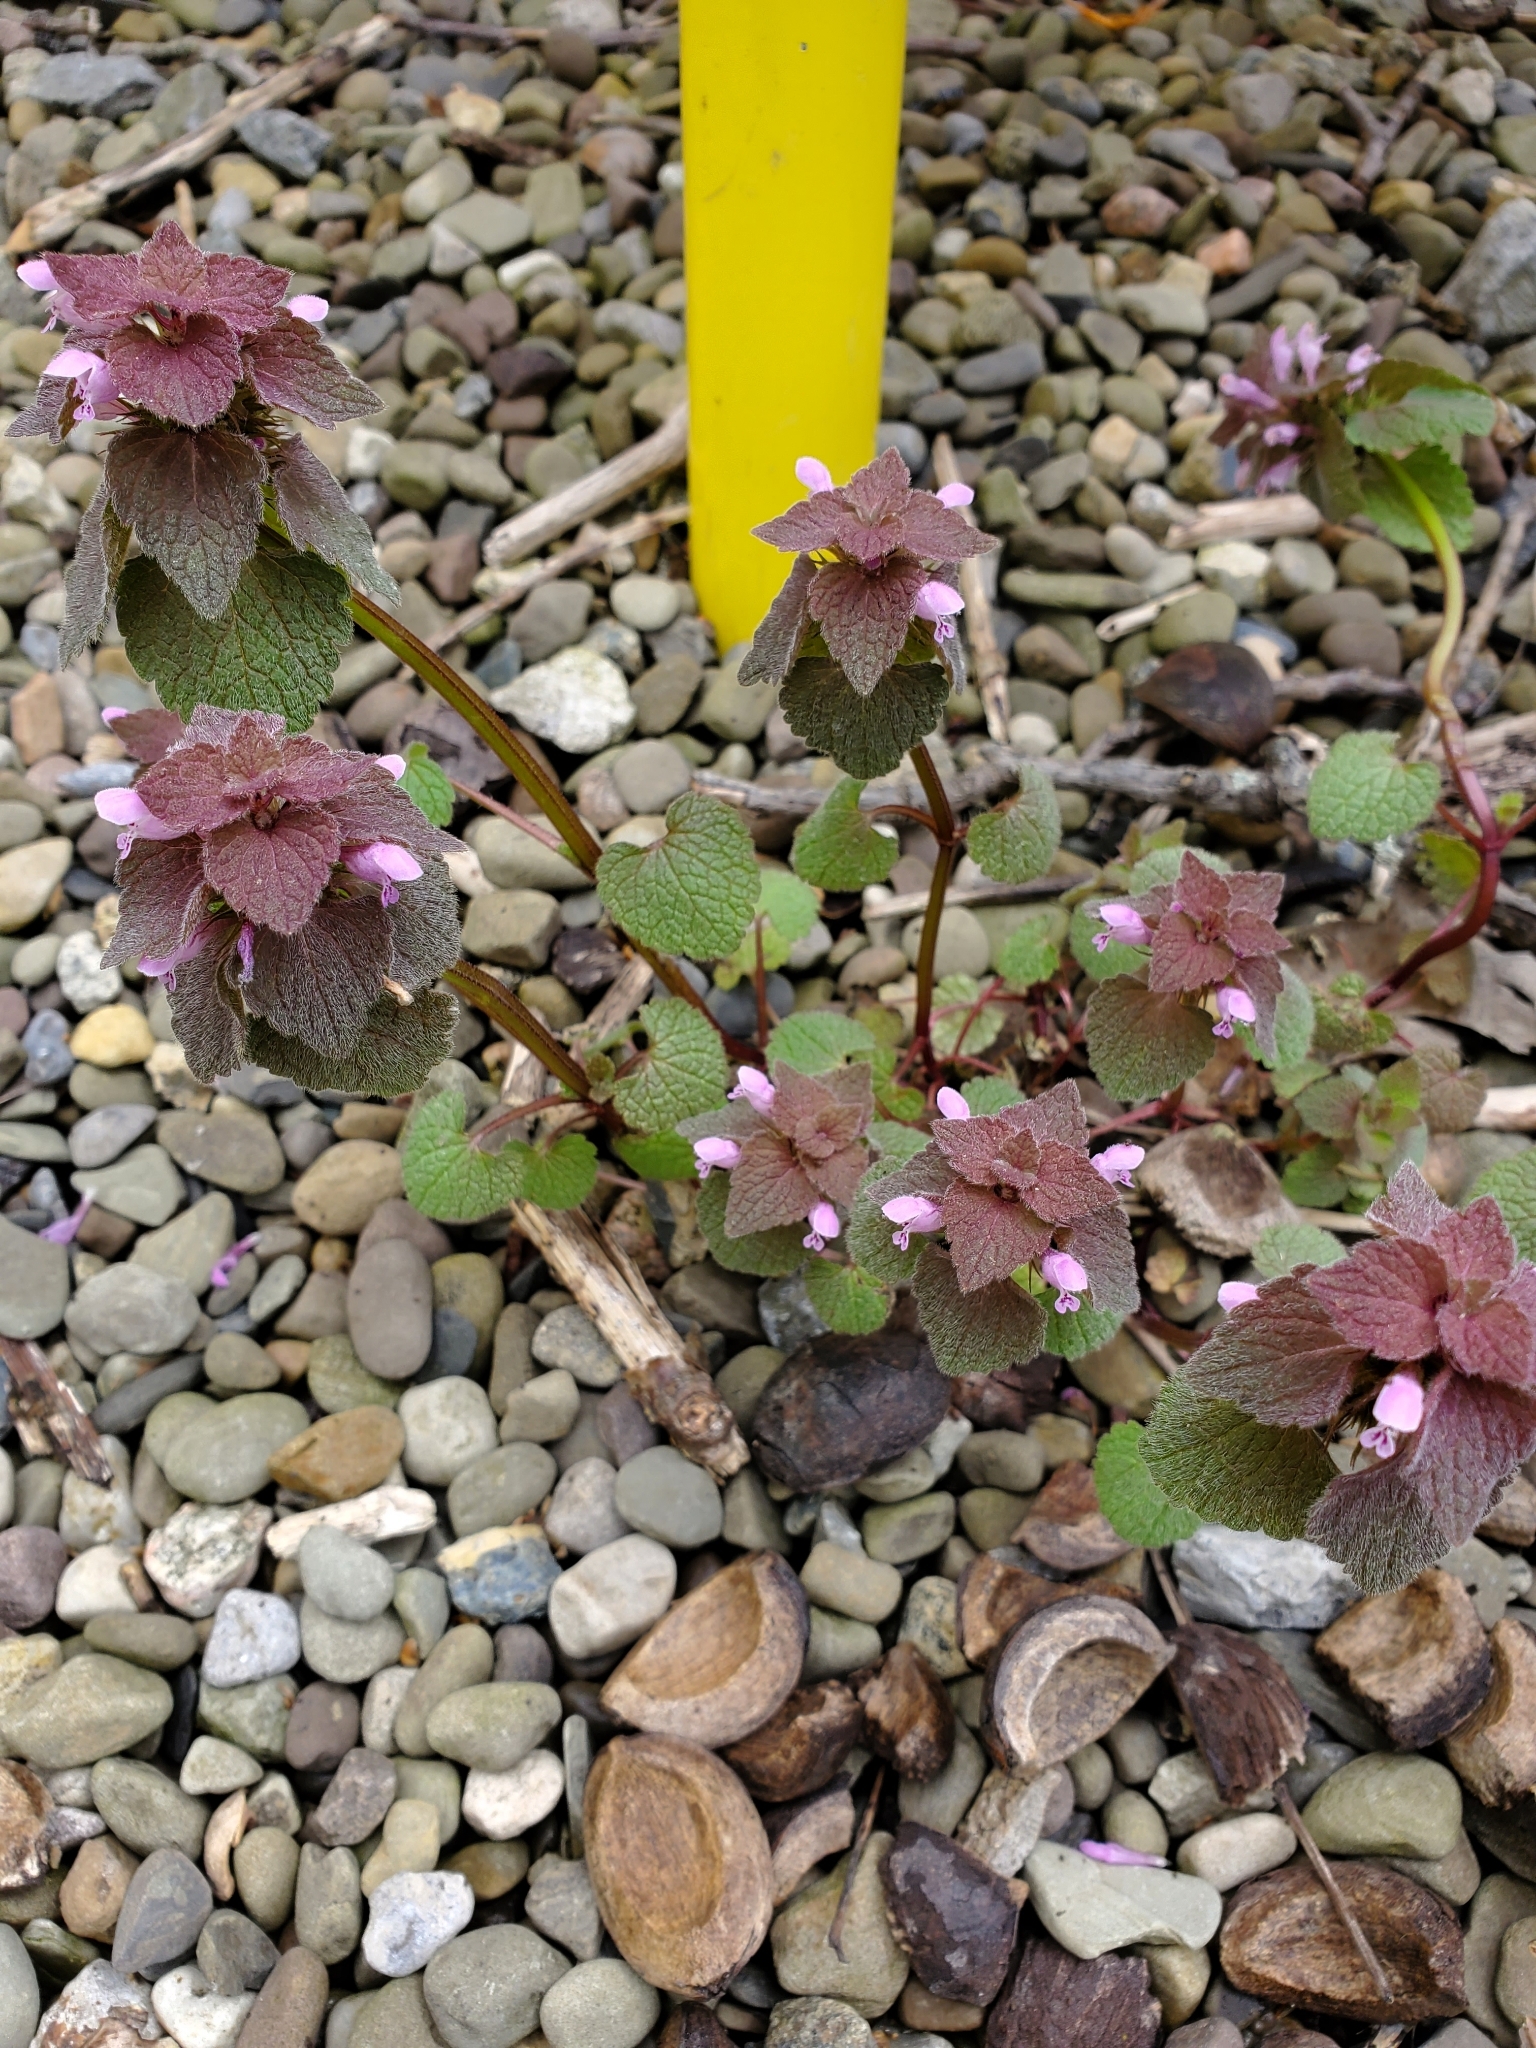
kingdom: Plantae
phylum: Tracheophyta
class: Magnoliopsida
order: Lamiales
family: Lamiaceae
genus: Lamium
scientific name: Lamium purpureum
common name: Red dead-nettle
